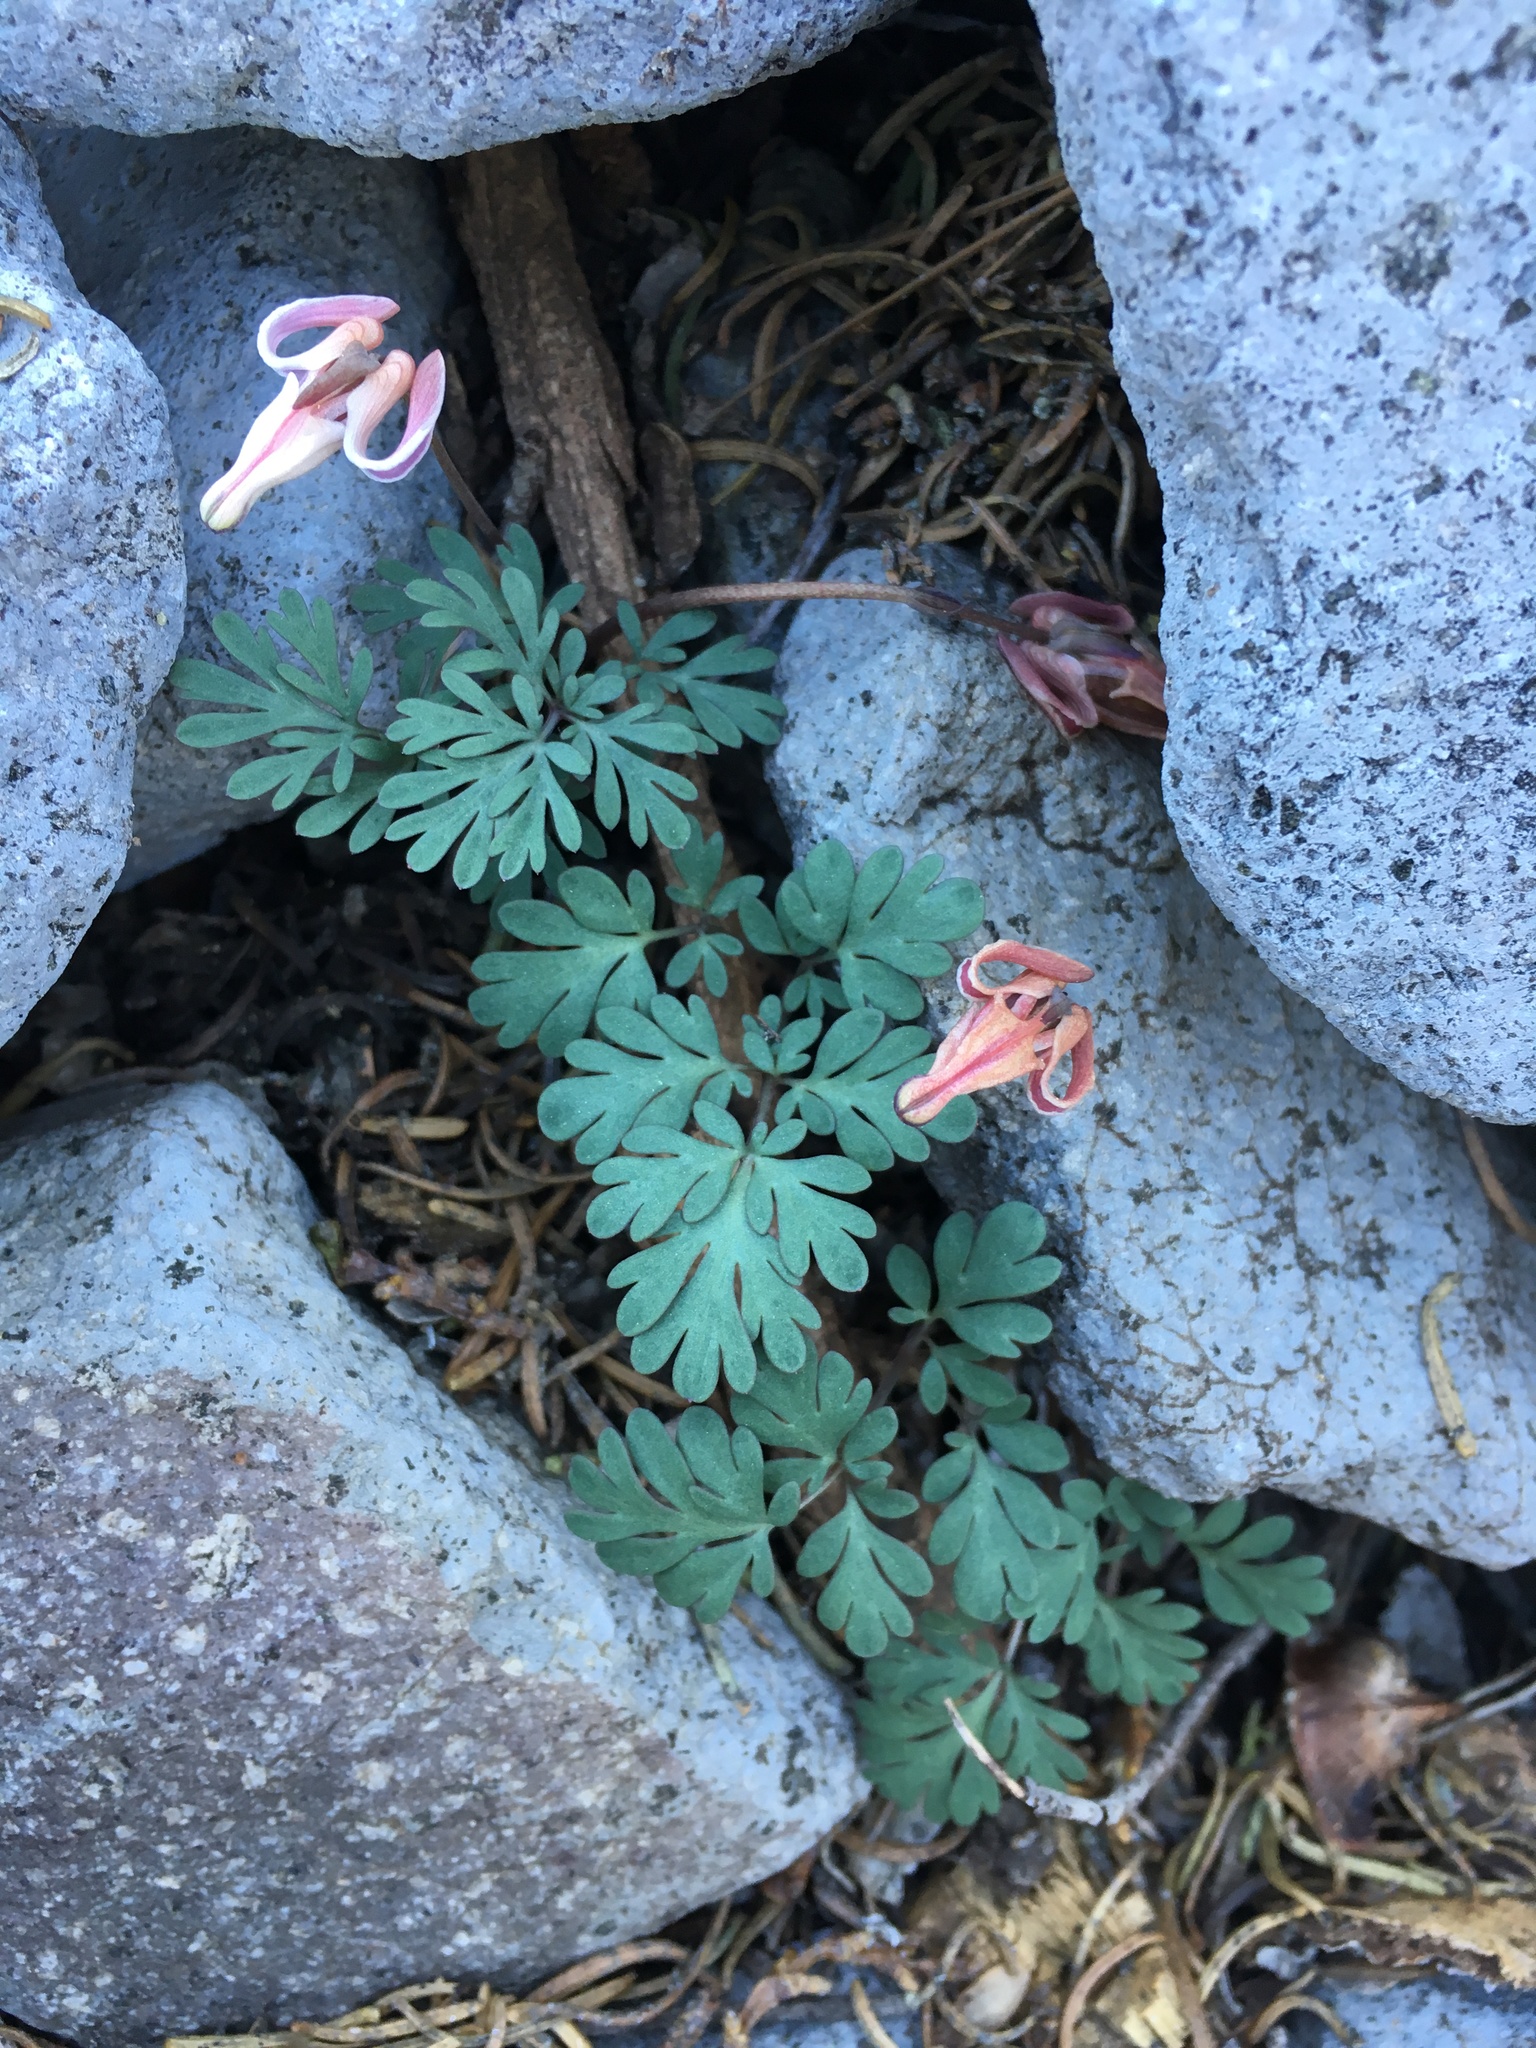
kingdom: Plantae
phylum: Tracheophyta
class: Magnoliopsida
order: Ranunculales
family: Papaveraceae
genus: Dicentra
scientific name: Dicentra uniflora
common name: Steer's-head
